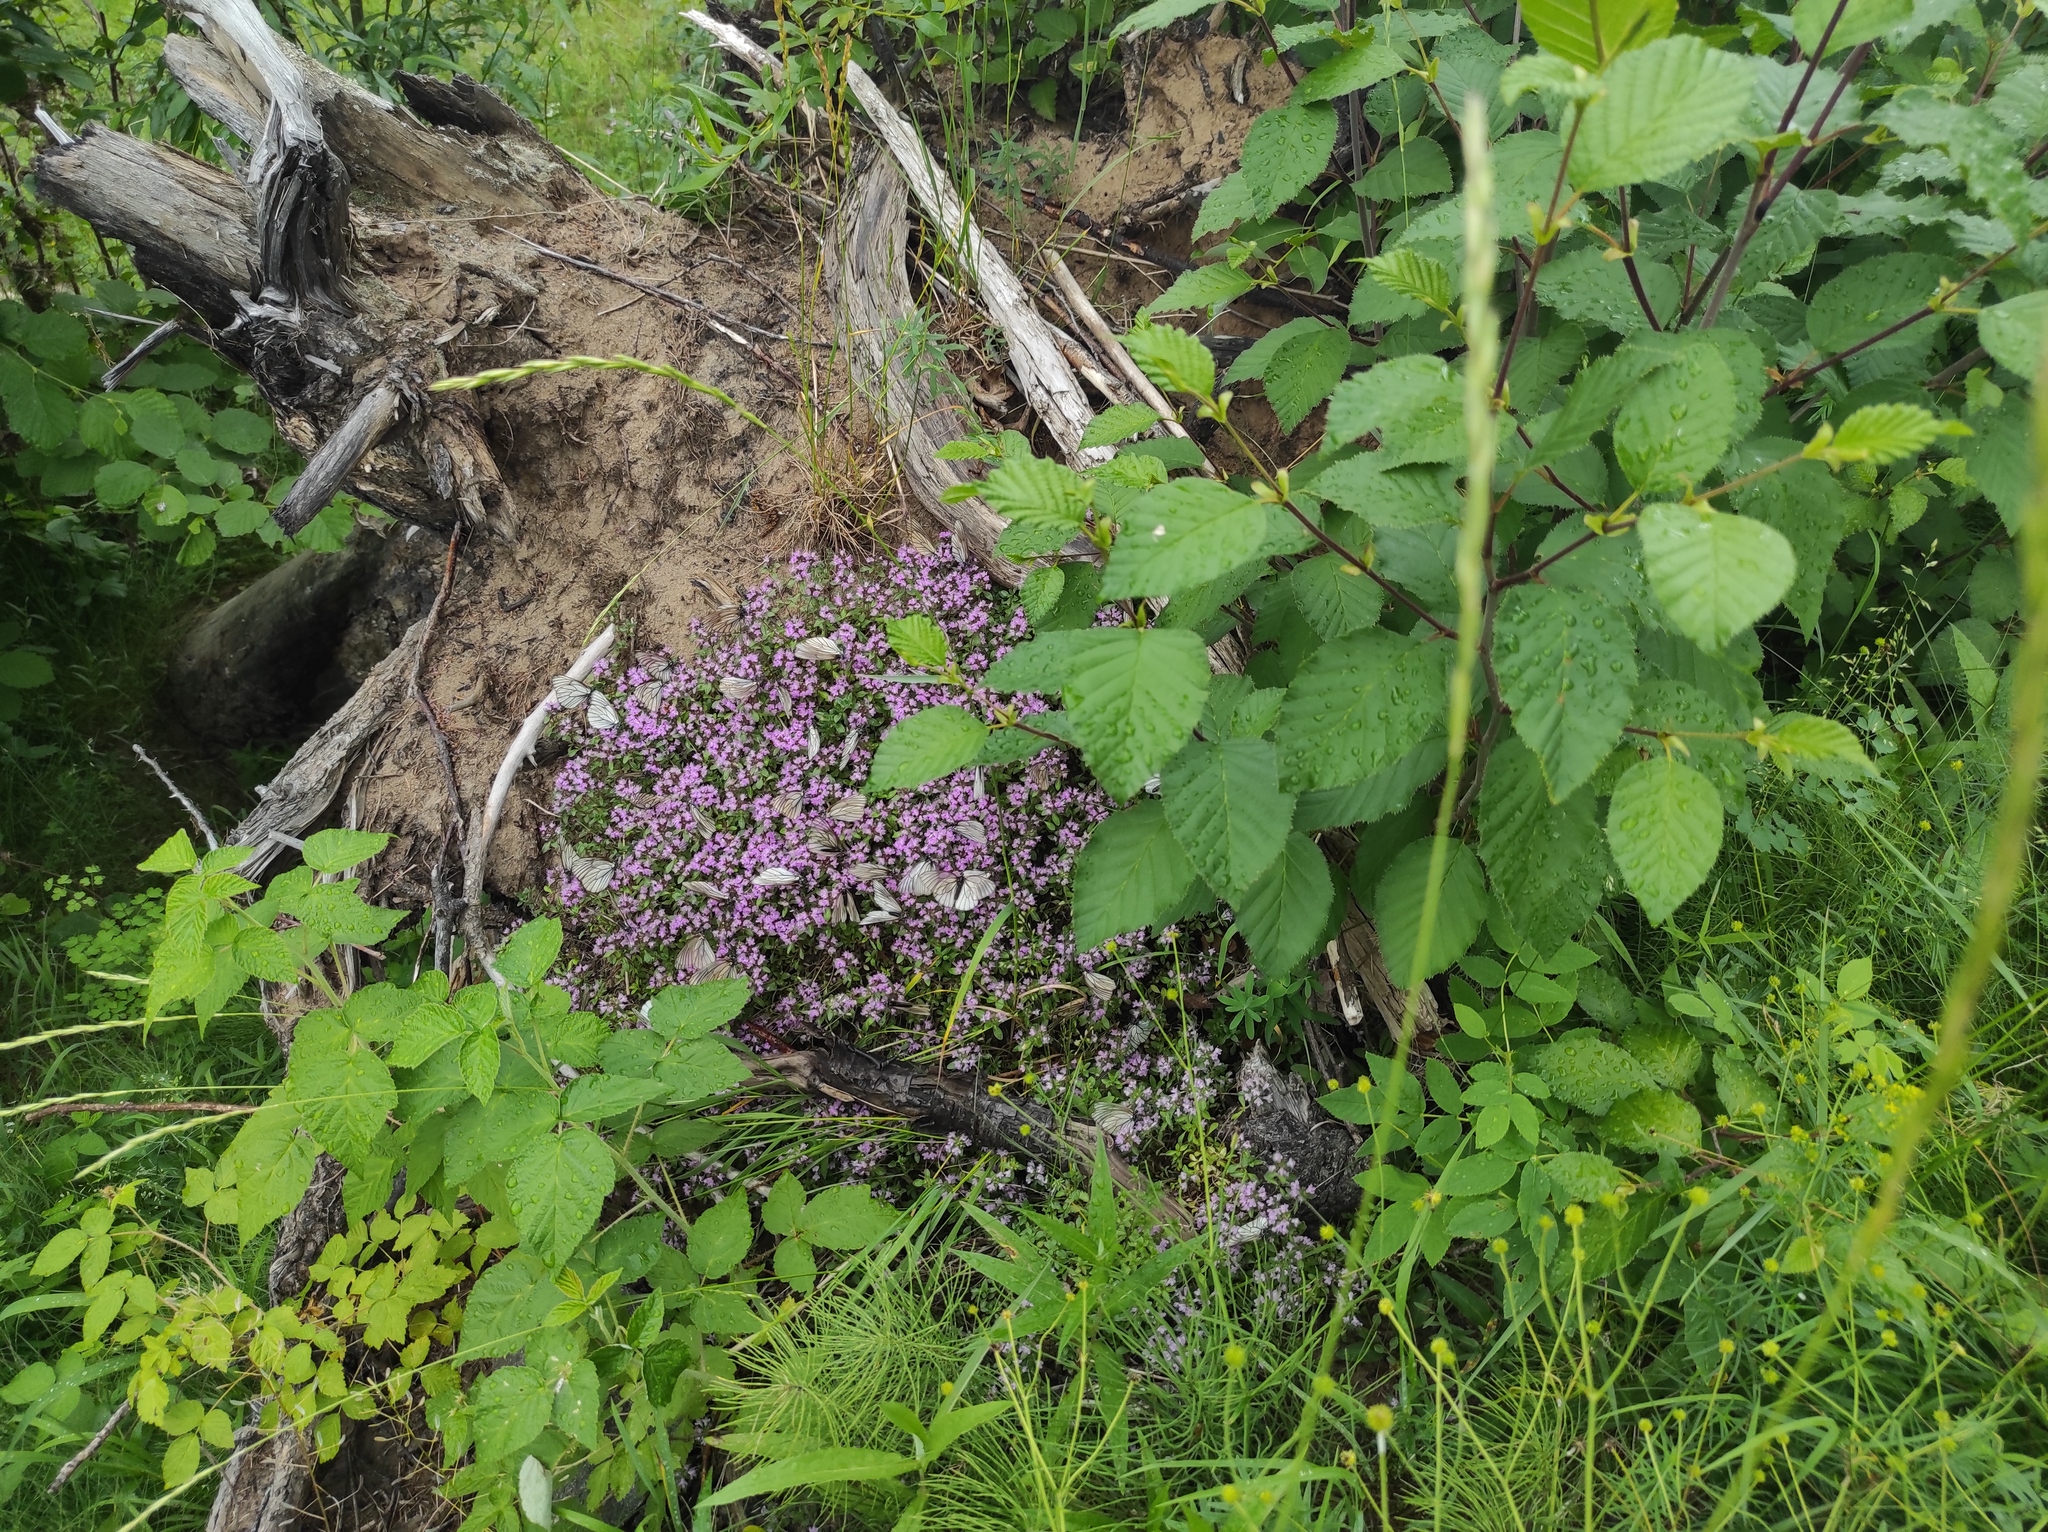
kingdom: Plantae
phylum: Tracheophyta
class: Magnoliopsida
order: Fagales
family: Betulaceae
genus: Alnus
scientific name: Alnus alnobetula
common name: Green alder
